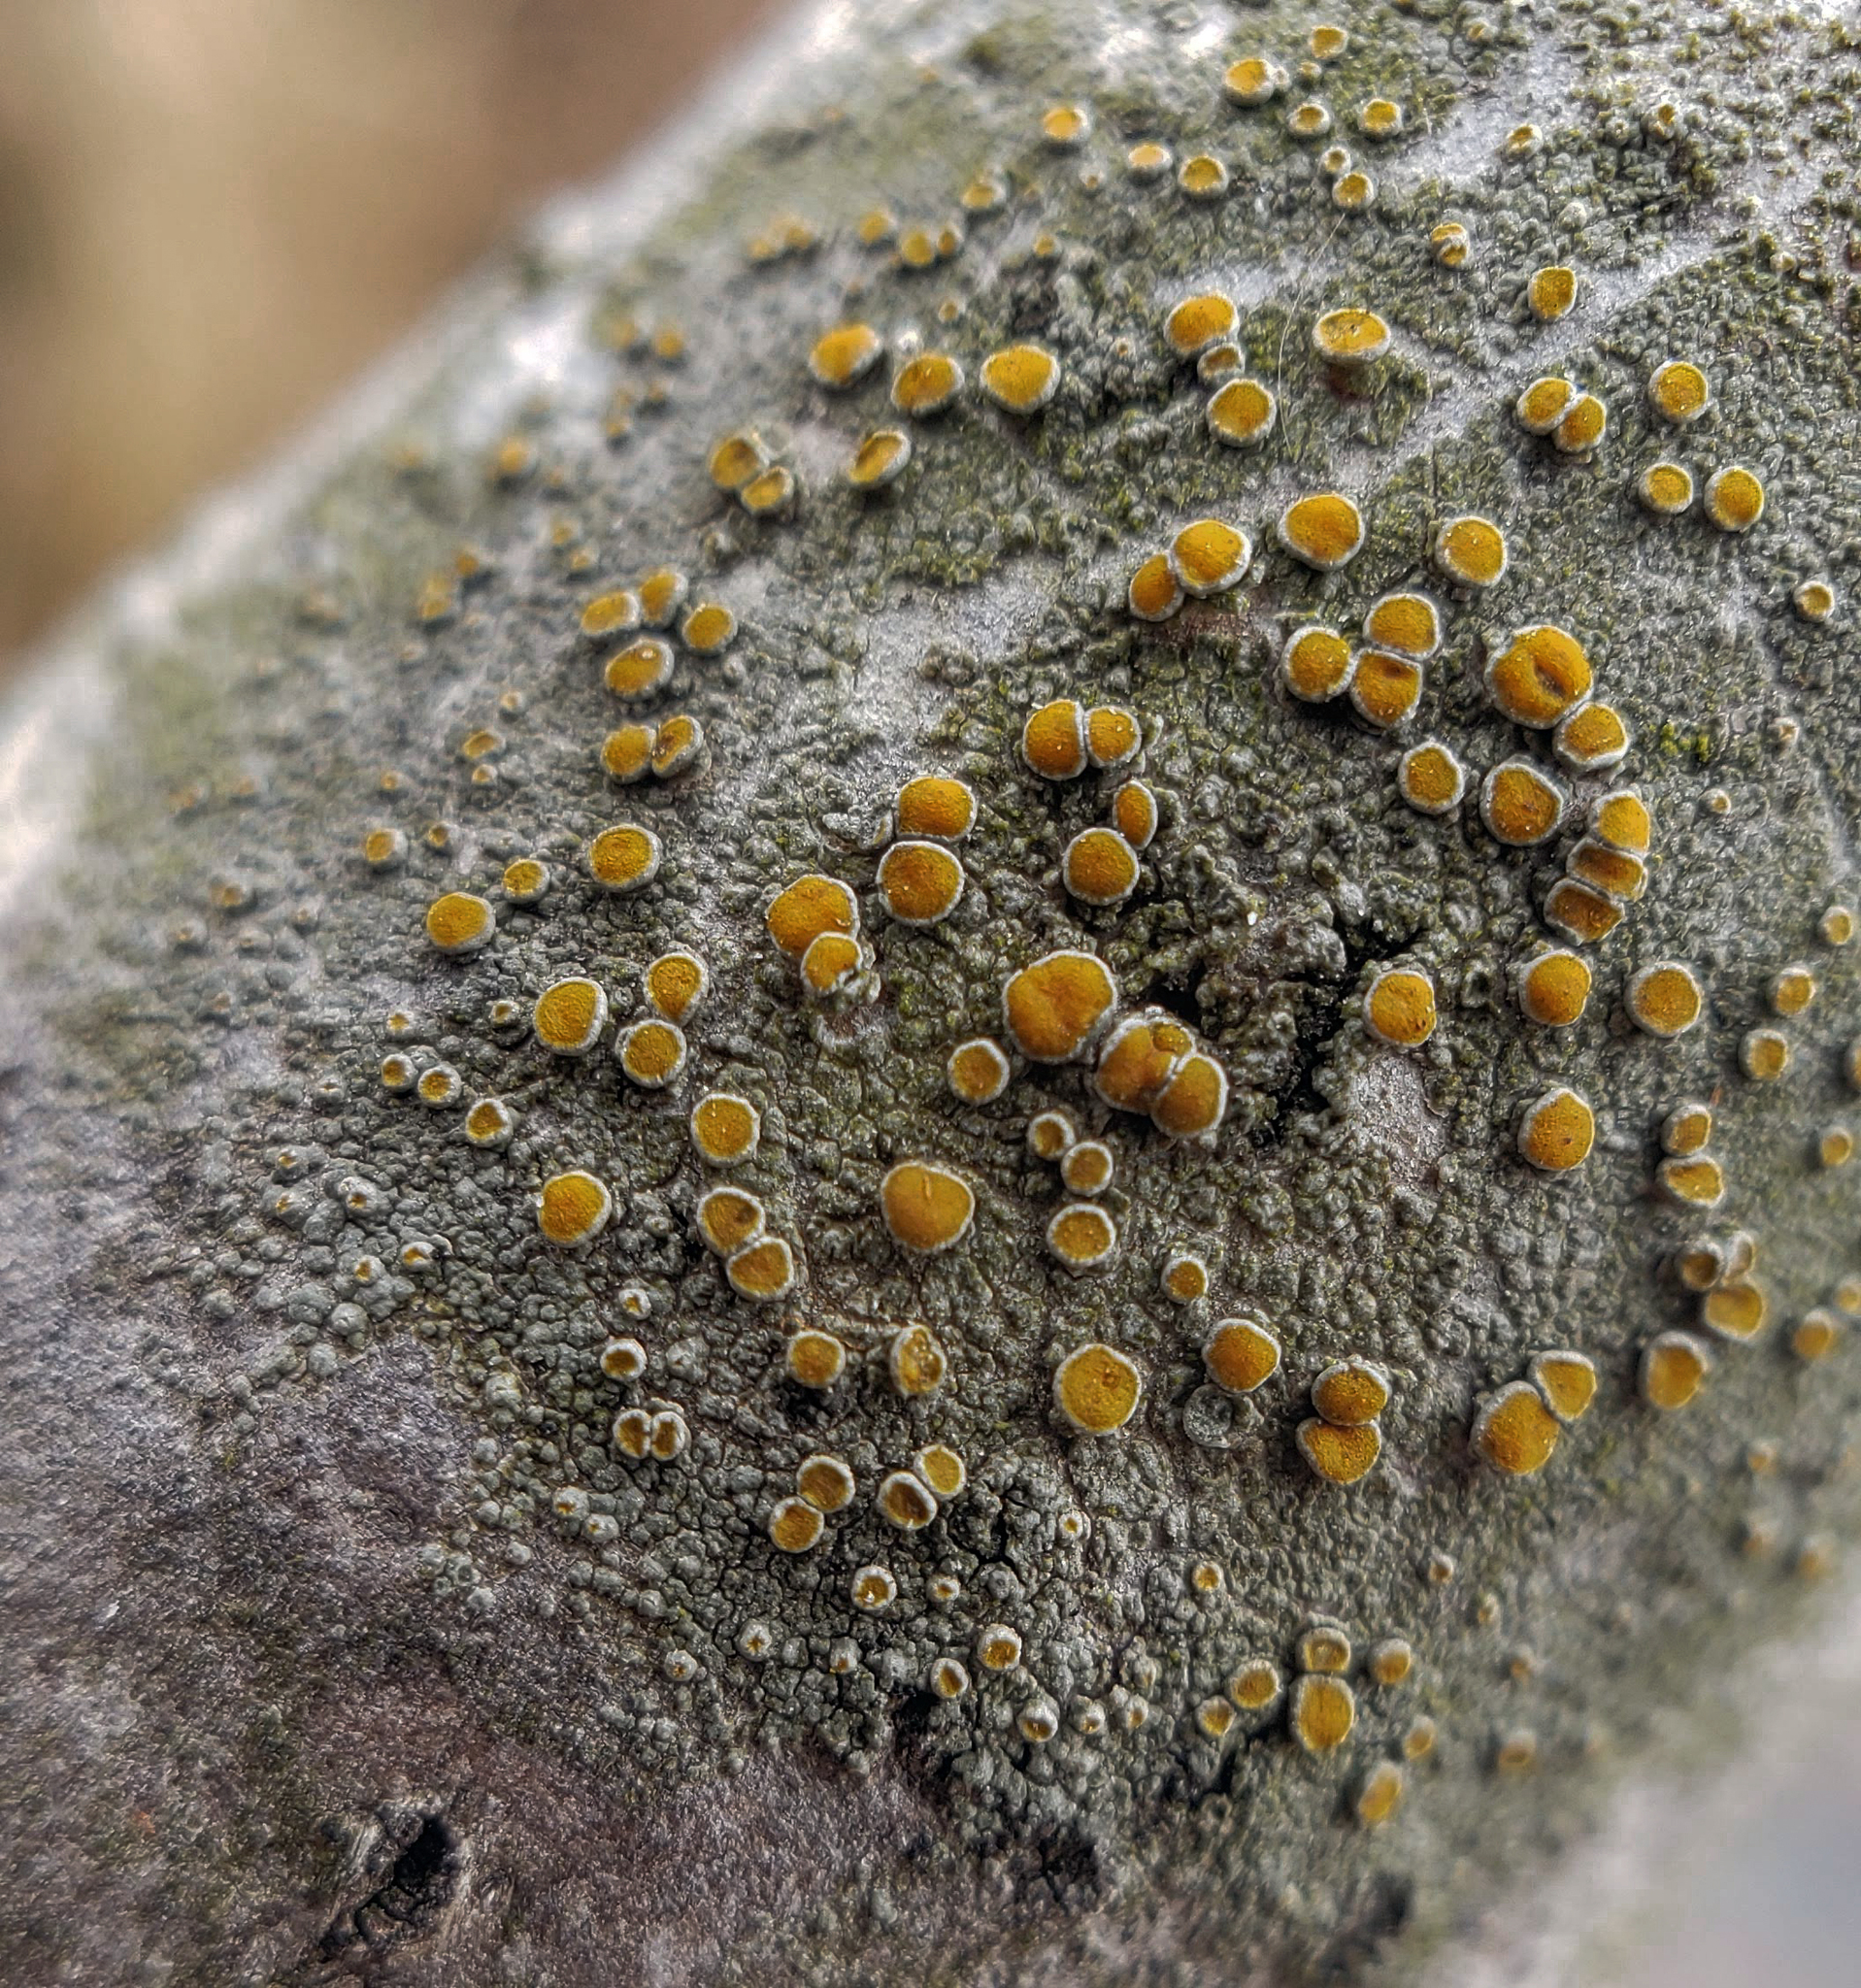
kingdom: Fungi
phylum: Ascomycota
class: Lecanoromycetes
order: Teloschistales
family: Teloschistaceae
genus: Caloplaca
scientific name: Caloplaca cerina
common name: Gray-rimmed firedot lichen
